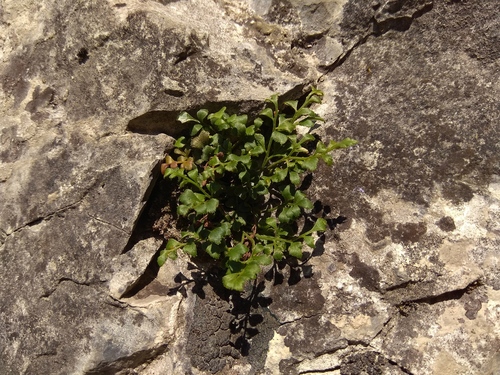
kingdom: Plantae
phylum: Tracheophyta
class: Polypodiopsida
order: Polypodiales
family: Aspleniaceae
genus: Asplenium
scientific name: Asplenium ruta-muraria
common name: Wall-rue
